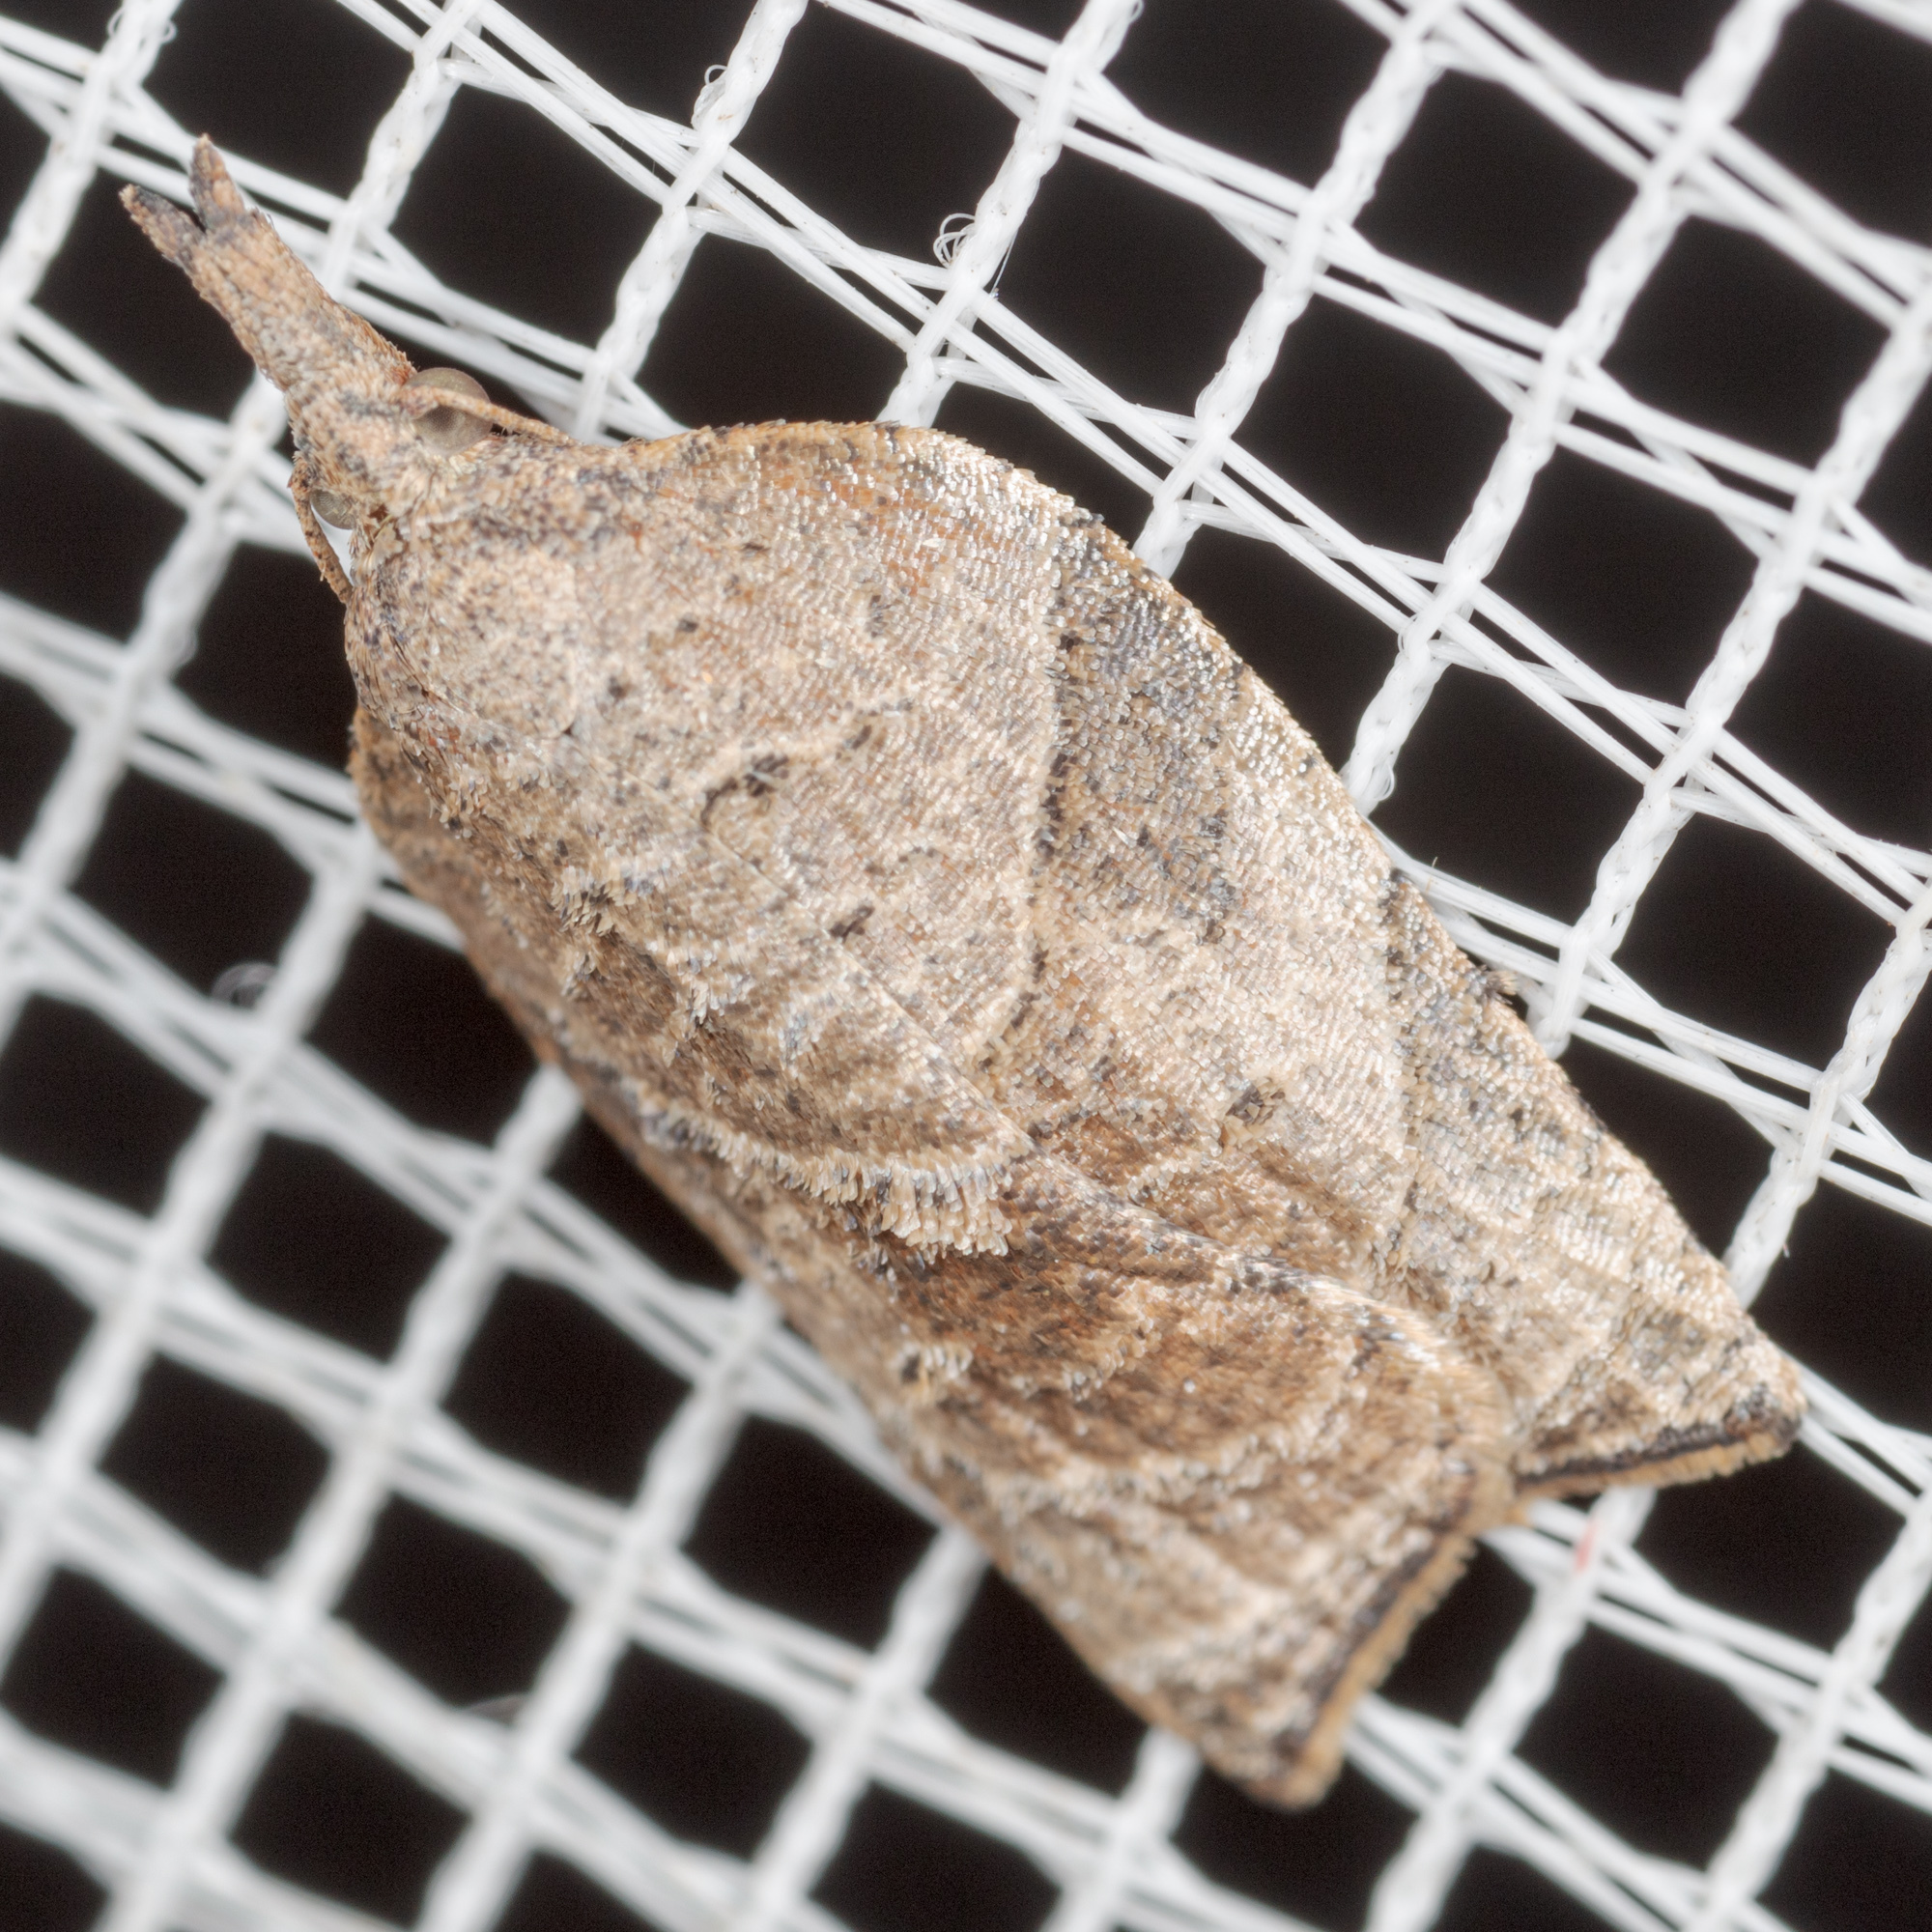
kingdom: Animalia
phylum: Arthropoda
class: Insecta
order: Lepidoptera
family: Tortricidae
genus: Platynota
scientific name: Platynota rostrana
